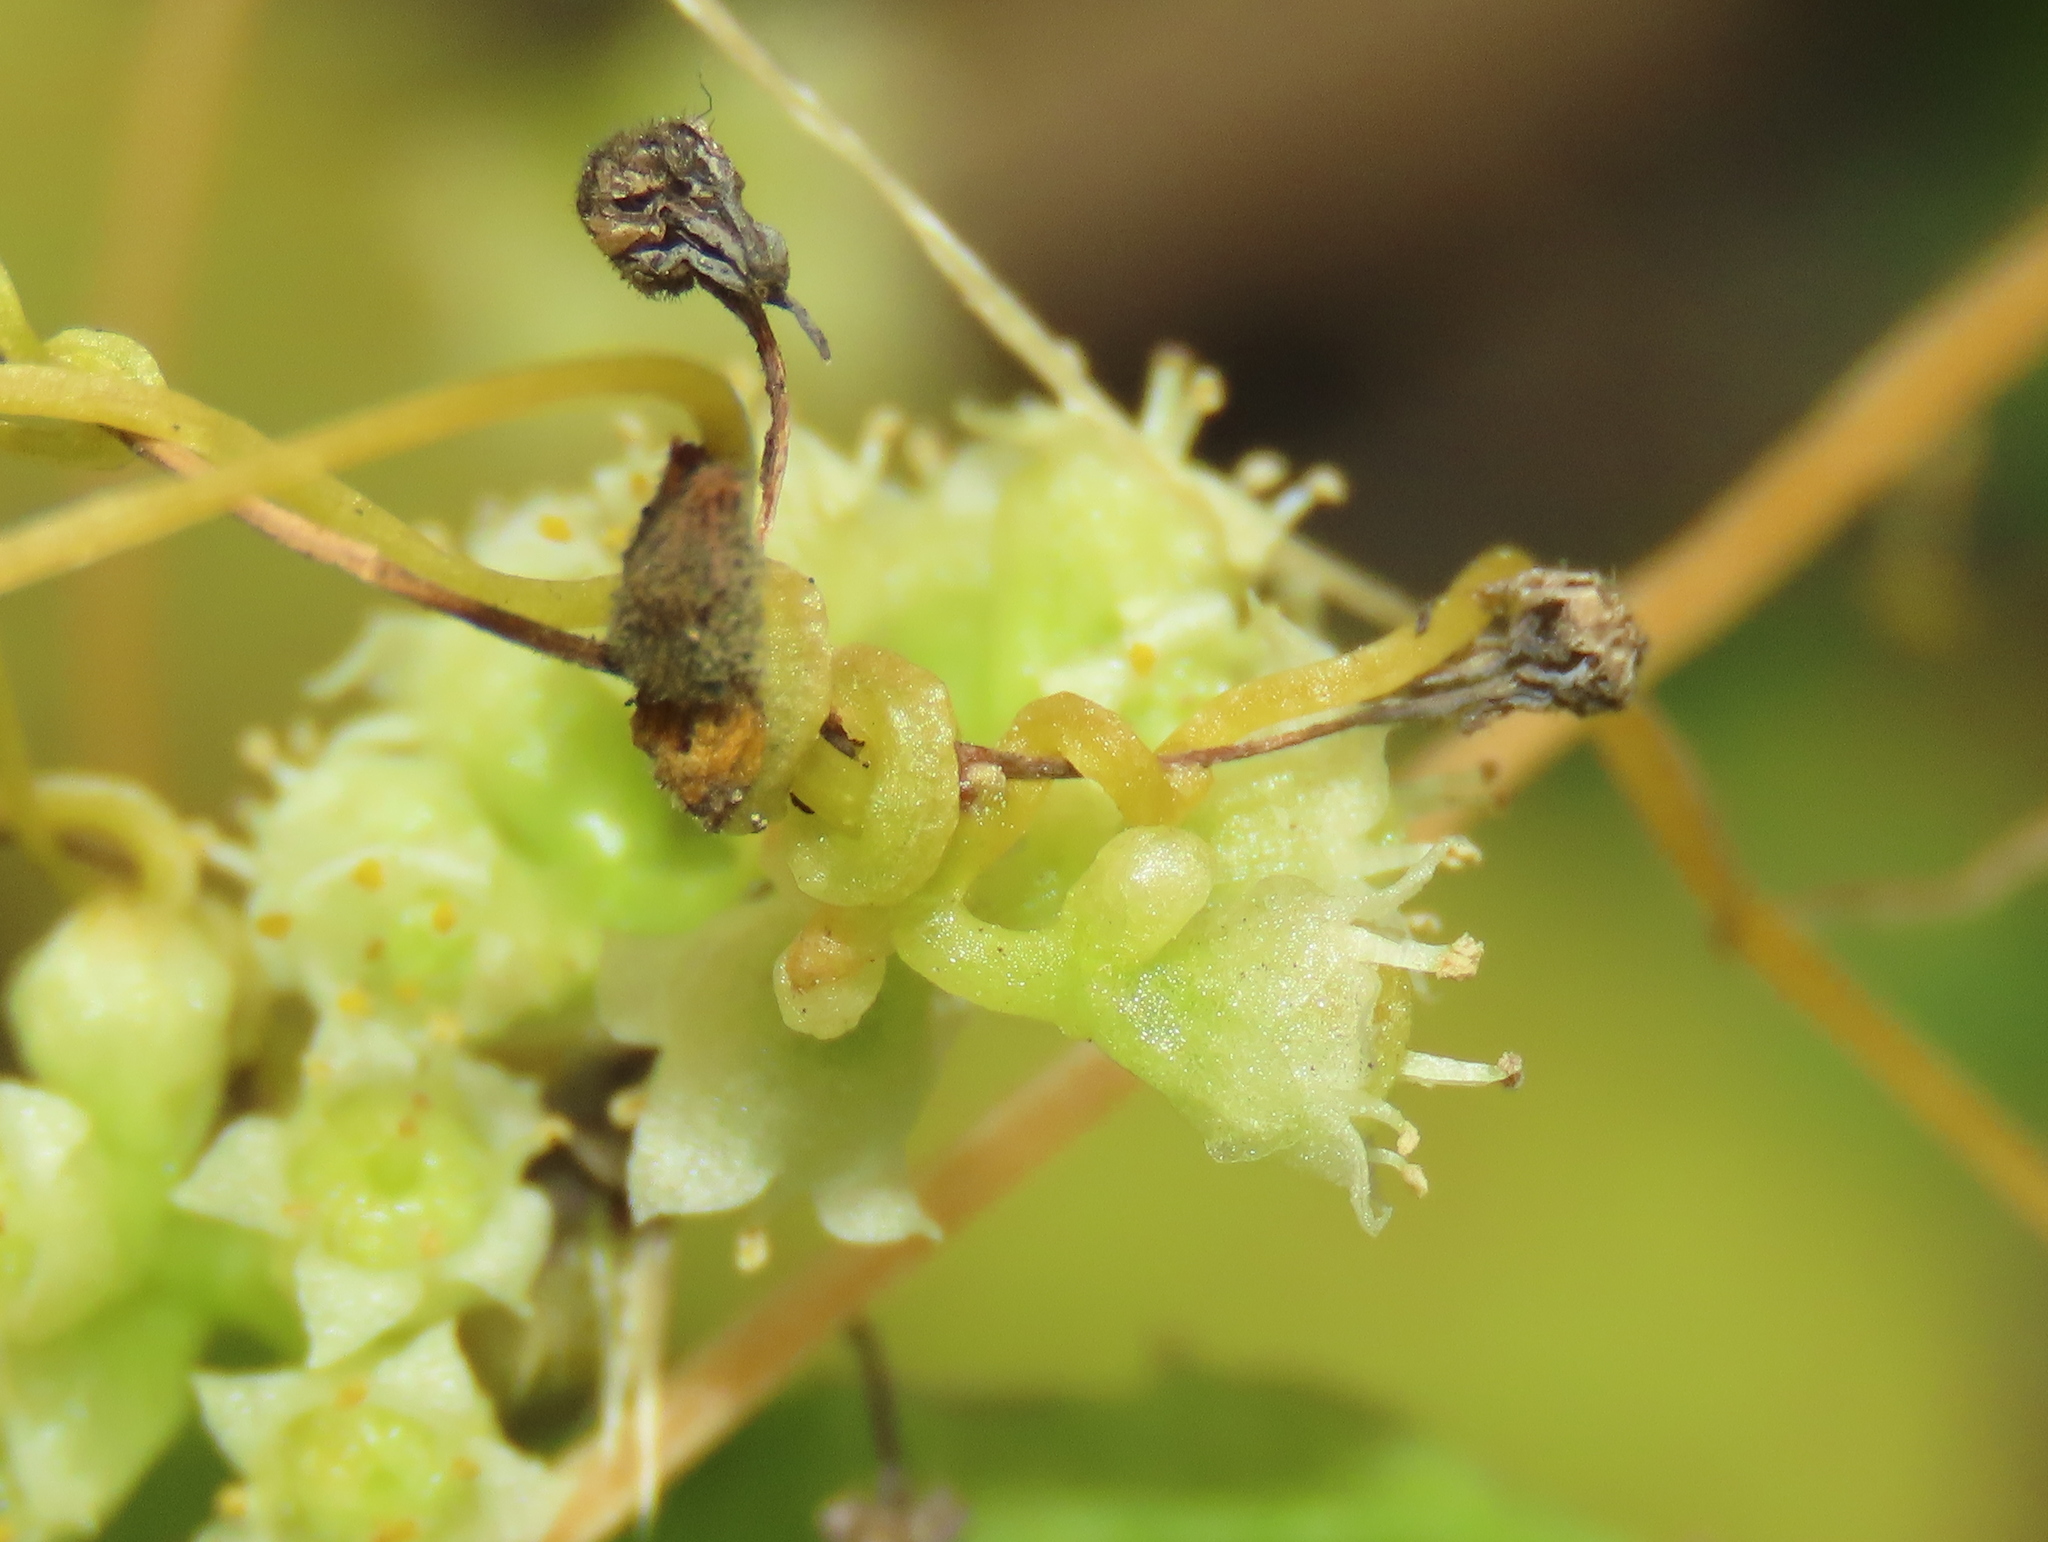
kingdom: Plantae
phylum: Tracheophyta
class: Magnoliopsida
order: Solanales
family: Convolvulaceae
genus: Cuscuta
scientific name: Cuscuta campestris
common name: Yellow dodder
